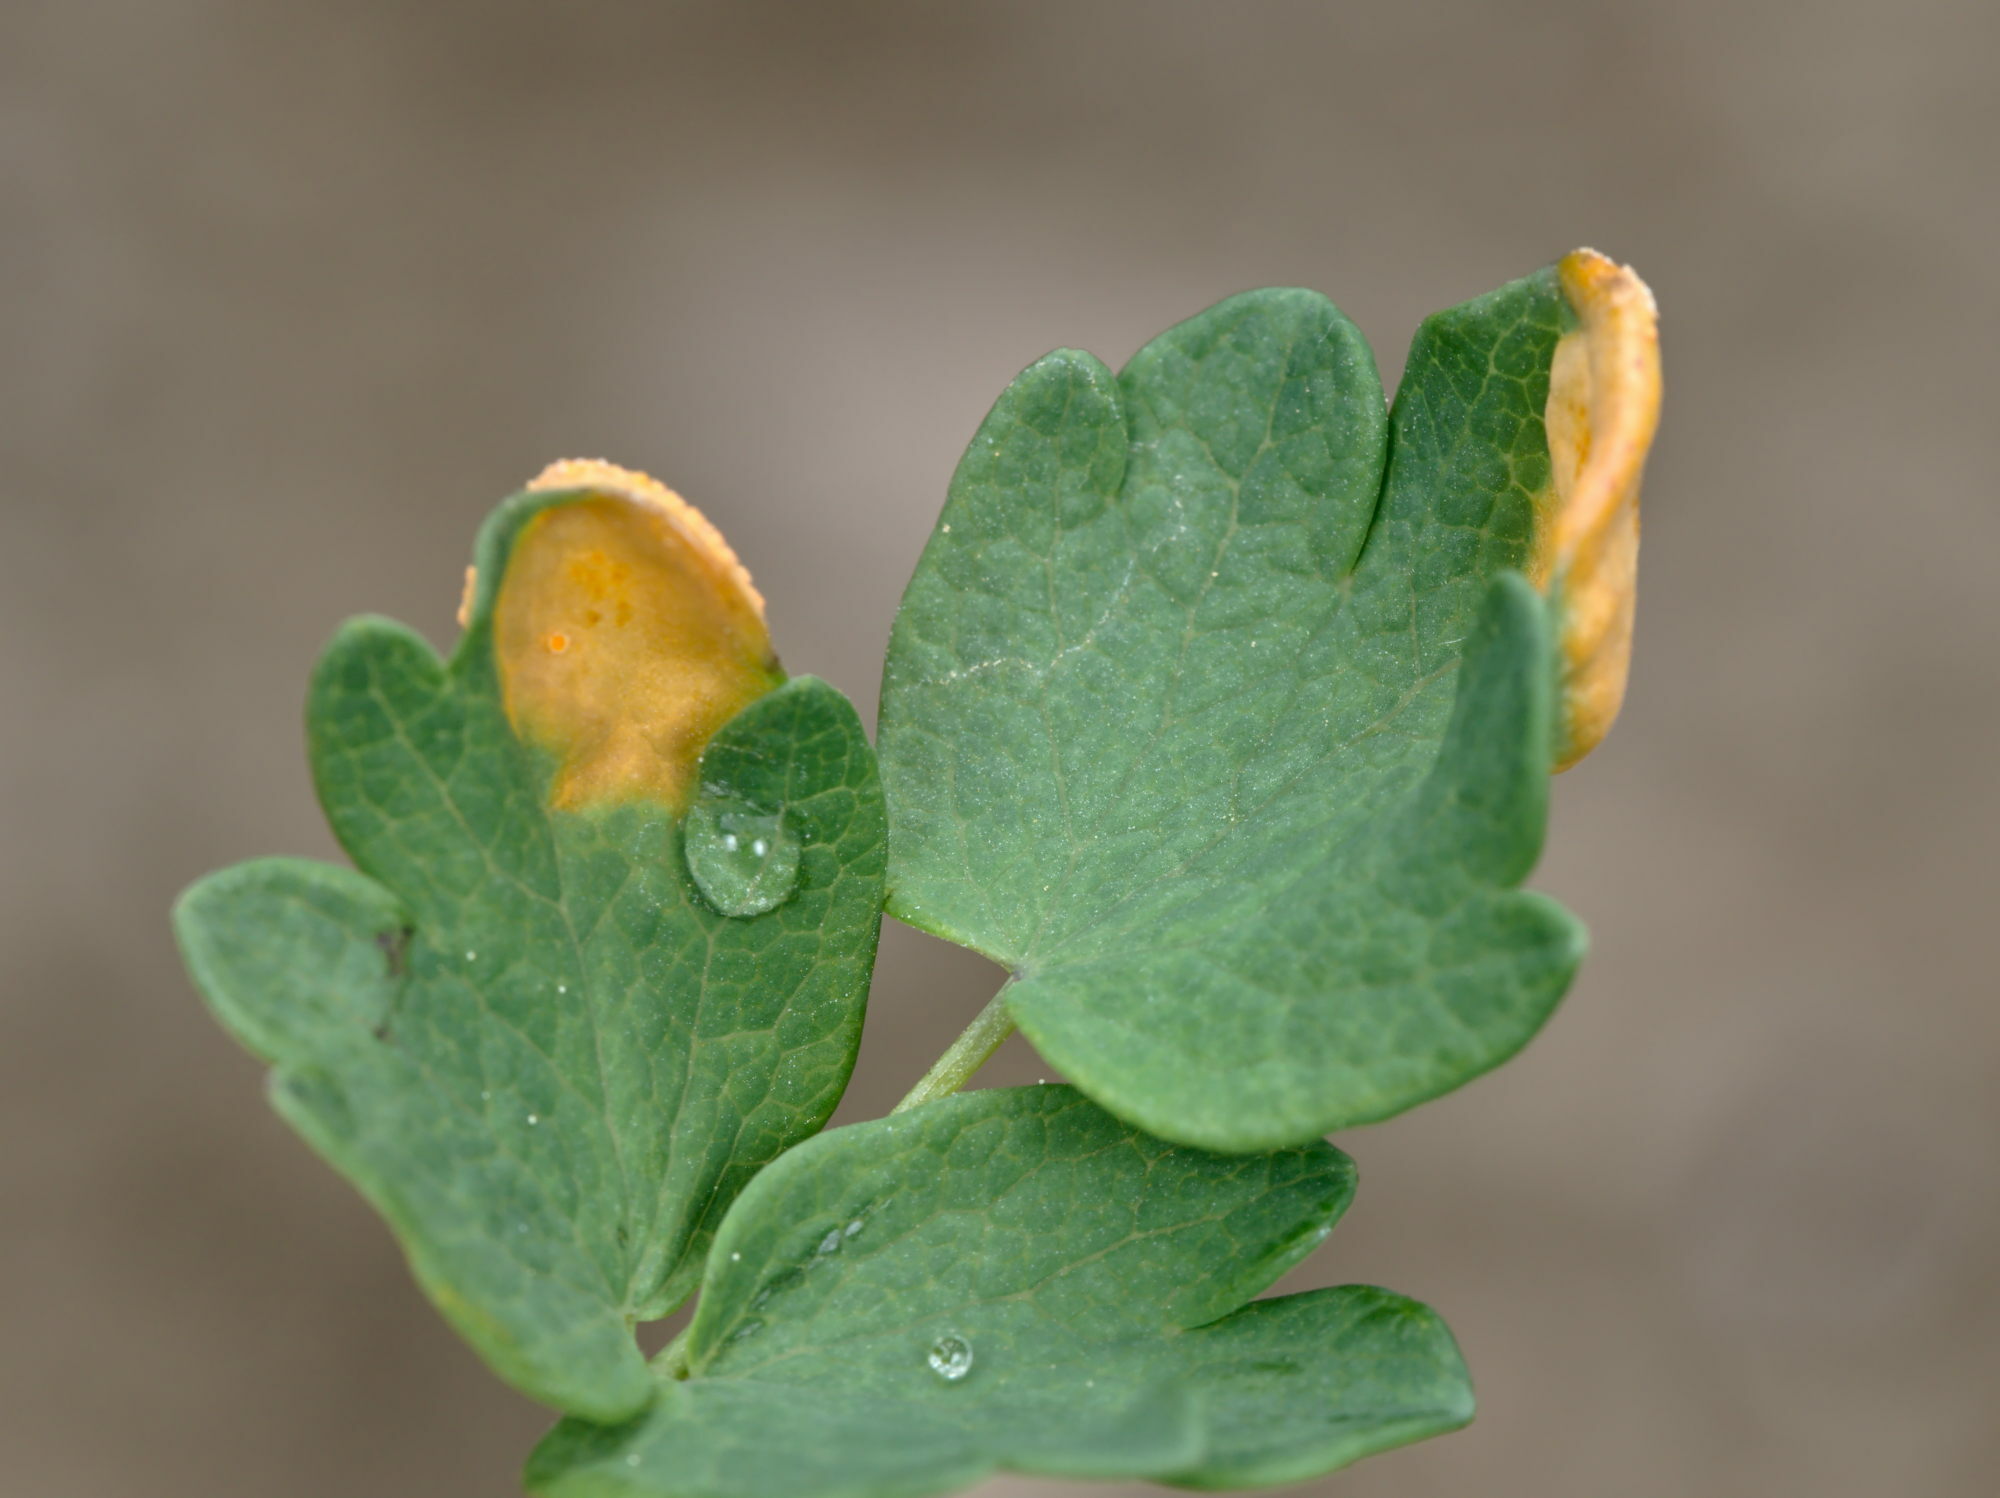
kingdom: Fungi
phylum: Basidiomycota
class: Pucciniomycetes
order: Pucciniales
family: Pucciniaceae
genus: Puccinia
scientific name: Puccinia recondita
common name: Brown rust of wheat
